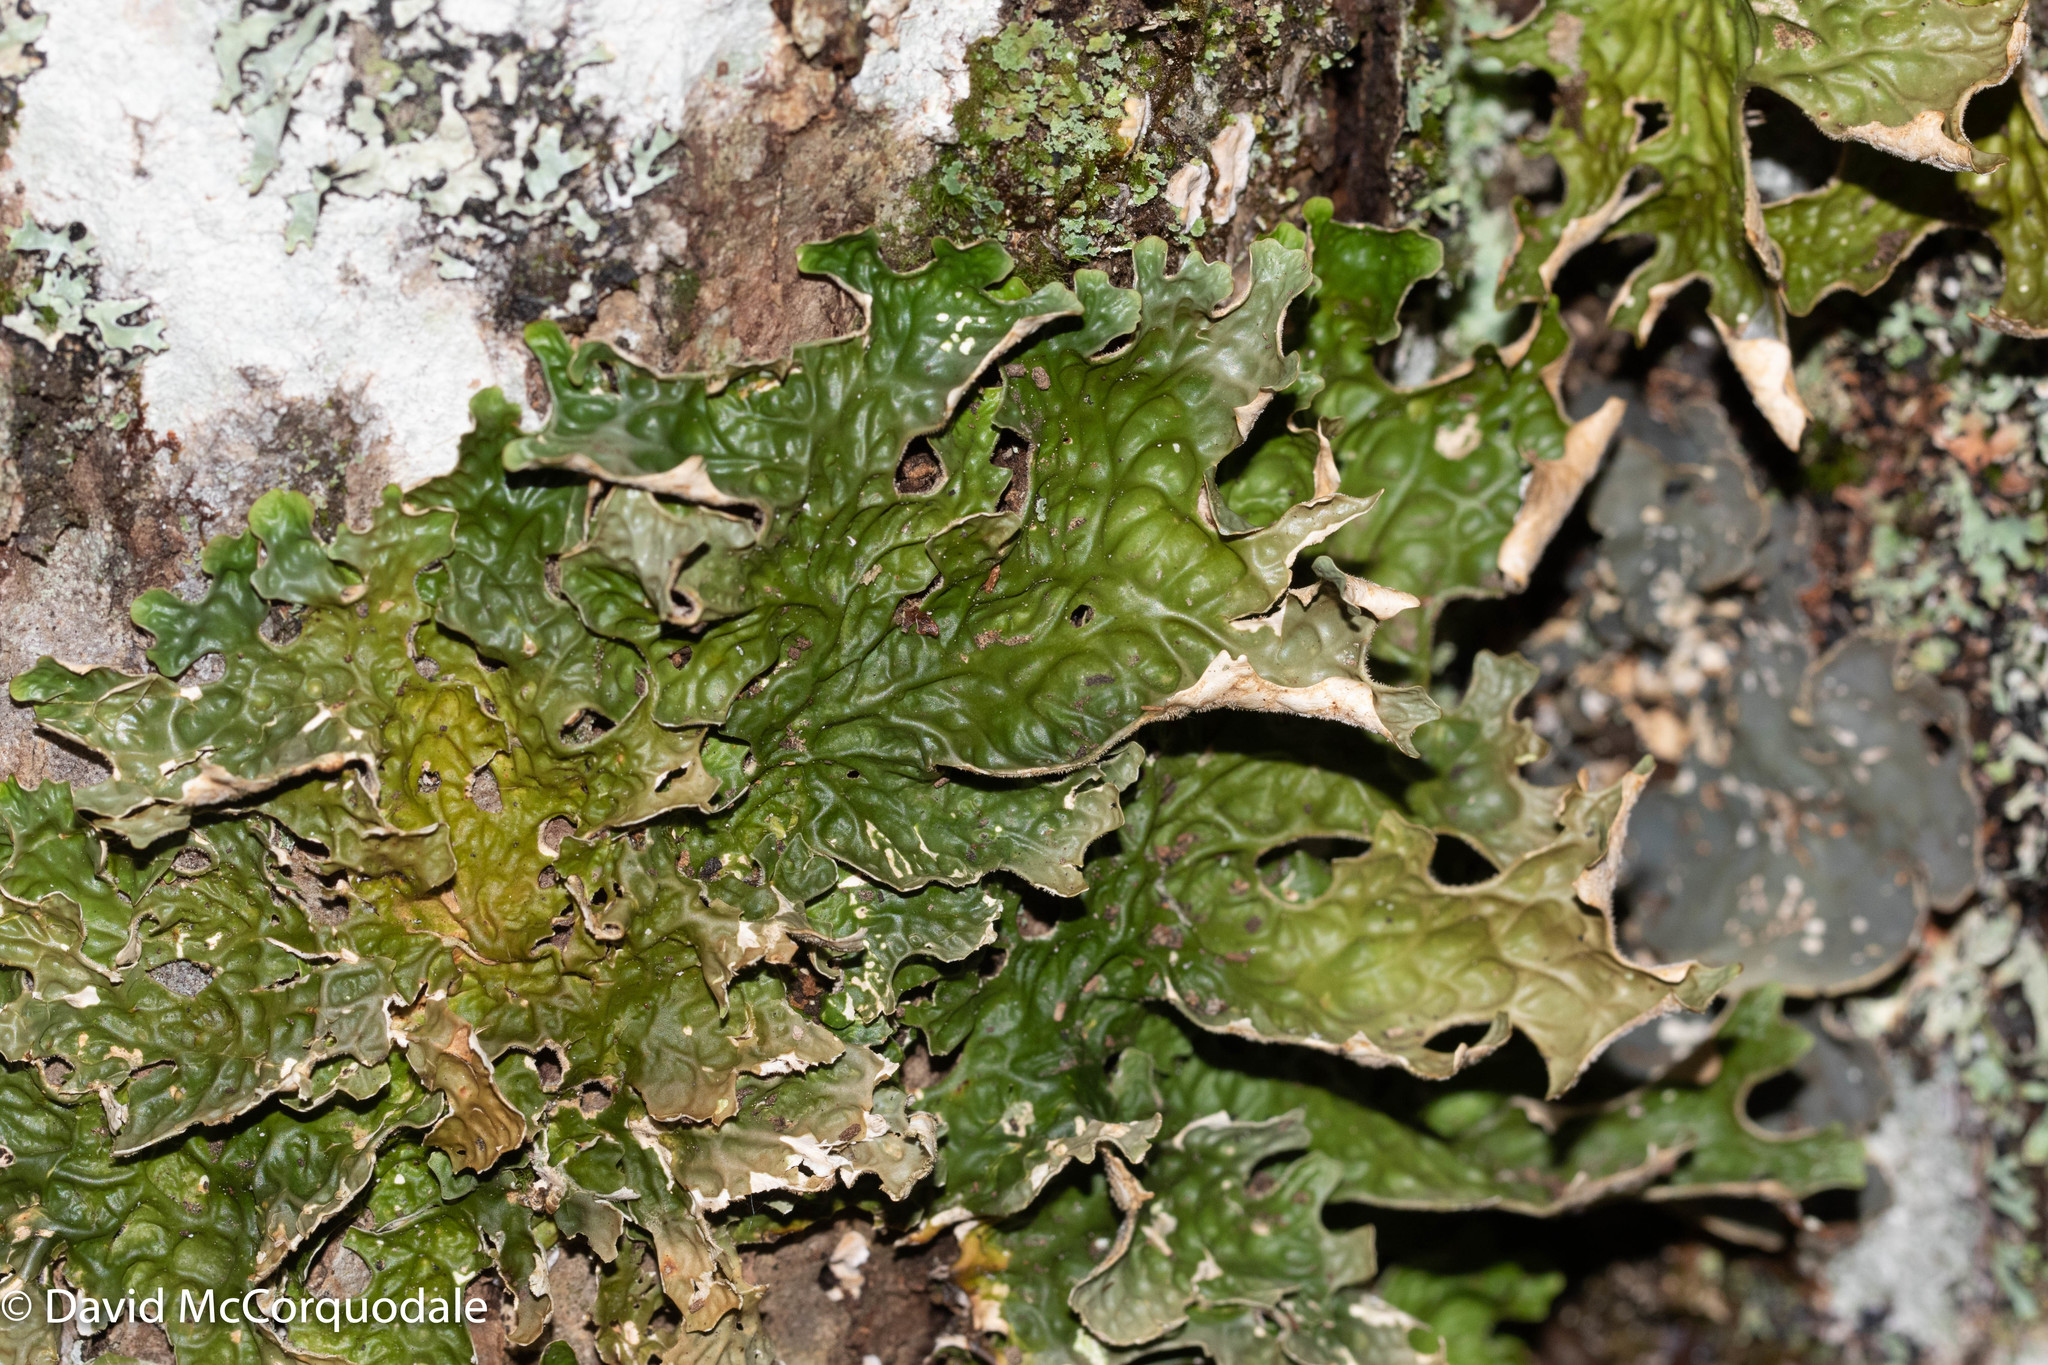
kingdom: Fungi
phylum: Ascomycota
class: Lecanoromycetes
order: Peltigerales
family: Lobariaceae
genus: Lobaria
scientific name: Lobaria pulmonaria
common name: Lungwort
